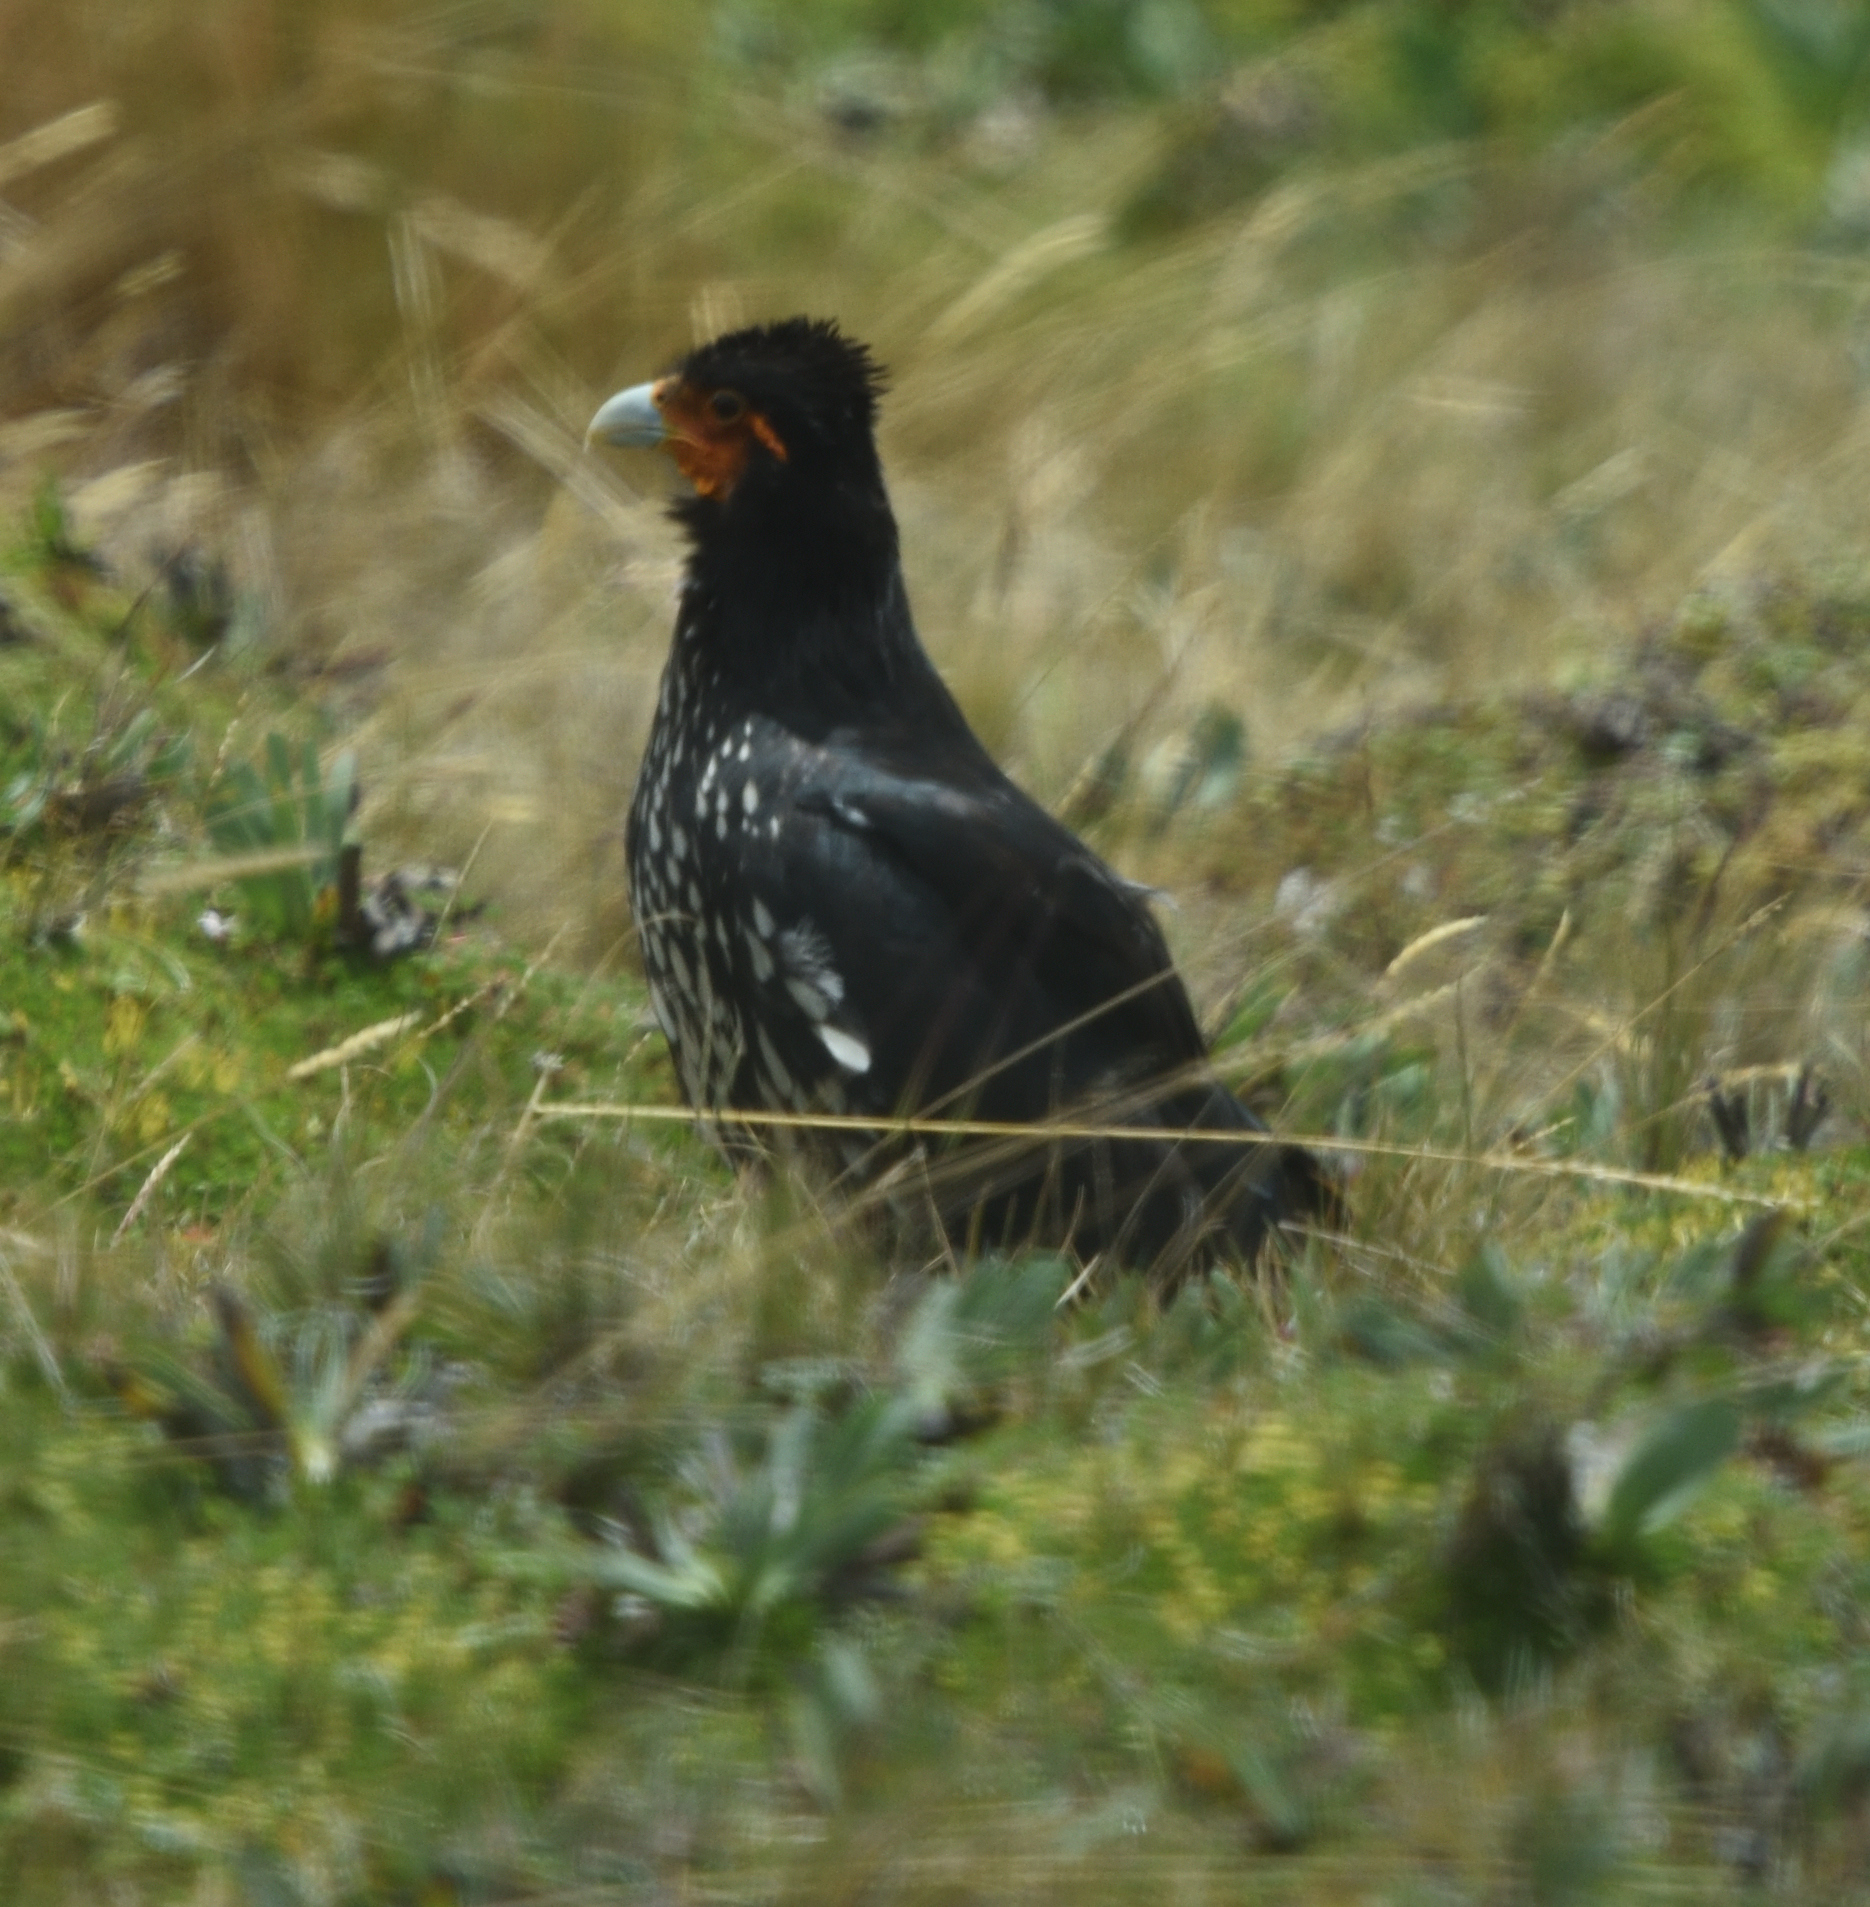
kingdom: Animalia
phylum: Chordata
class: Aves
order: Falconiformes
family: Falconidae
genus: Daptrius
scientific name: Daptrius
